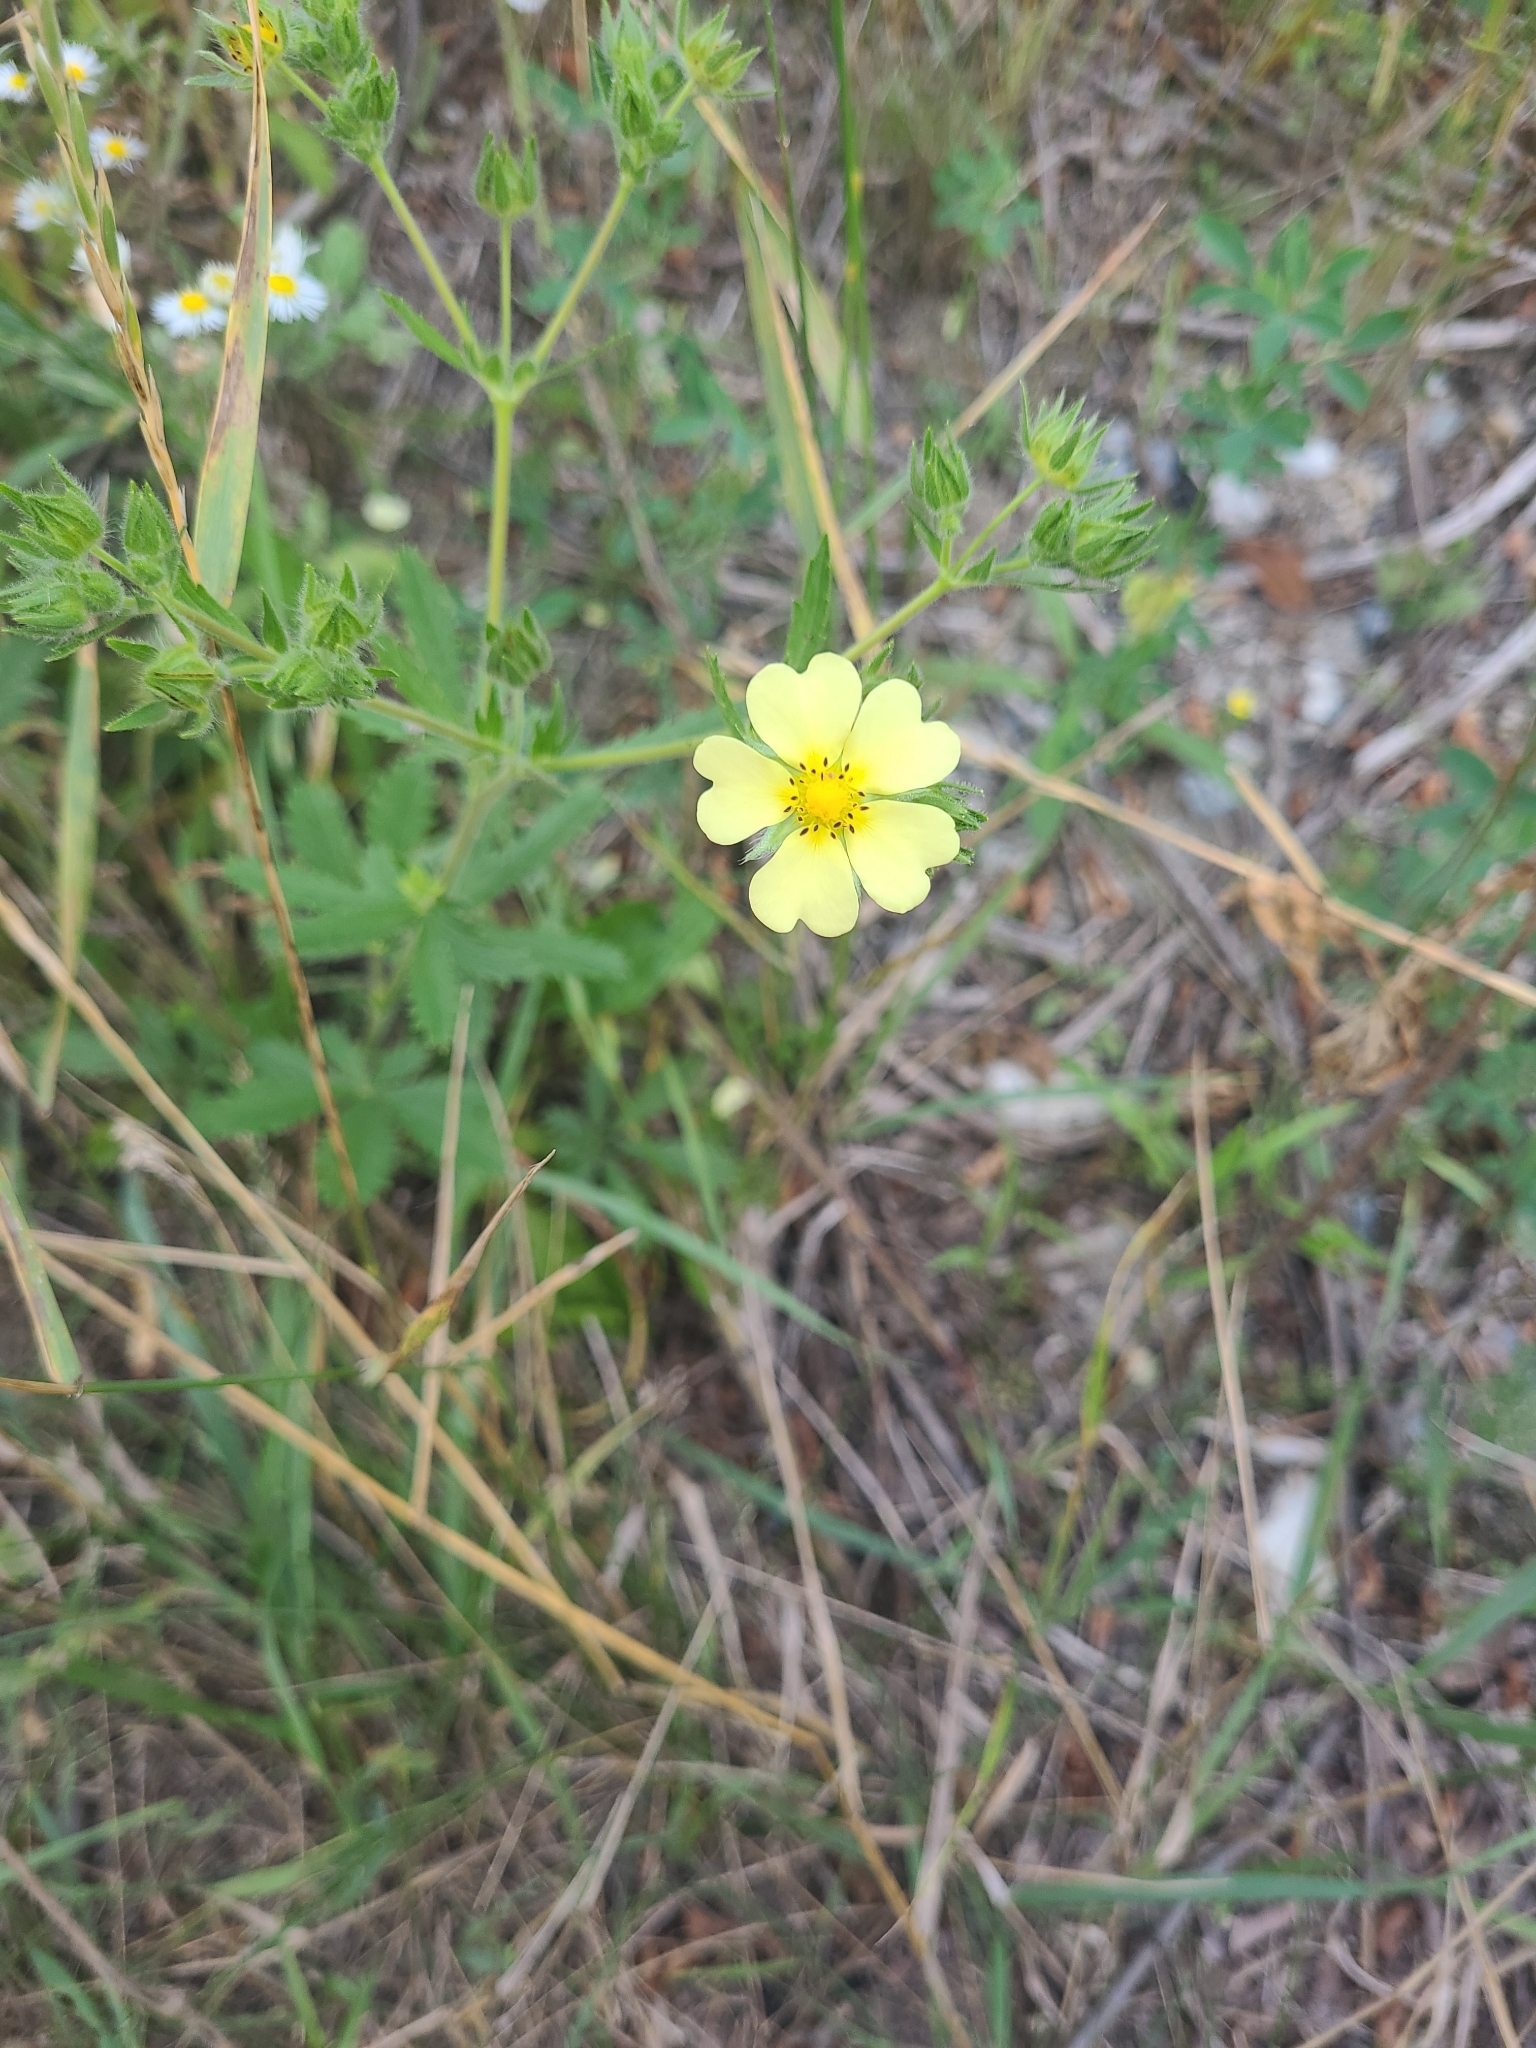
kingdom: Plantae
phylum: Tracheophyta
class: Magnoliopsida
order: Rosales
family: Rosaceae
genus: Potentilla
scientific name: Potentilla recta
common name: Sulphur cinquefoil
